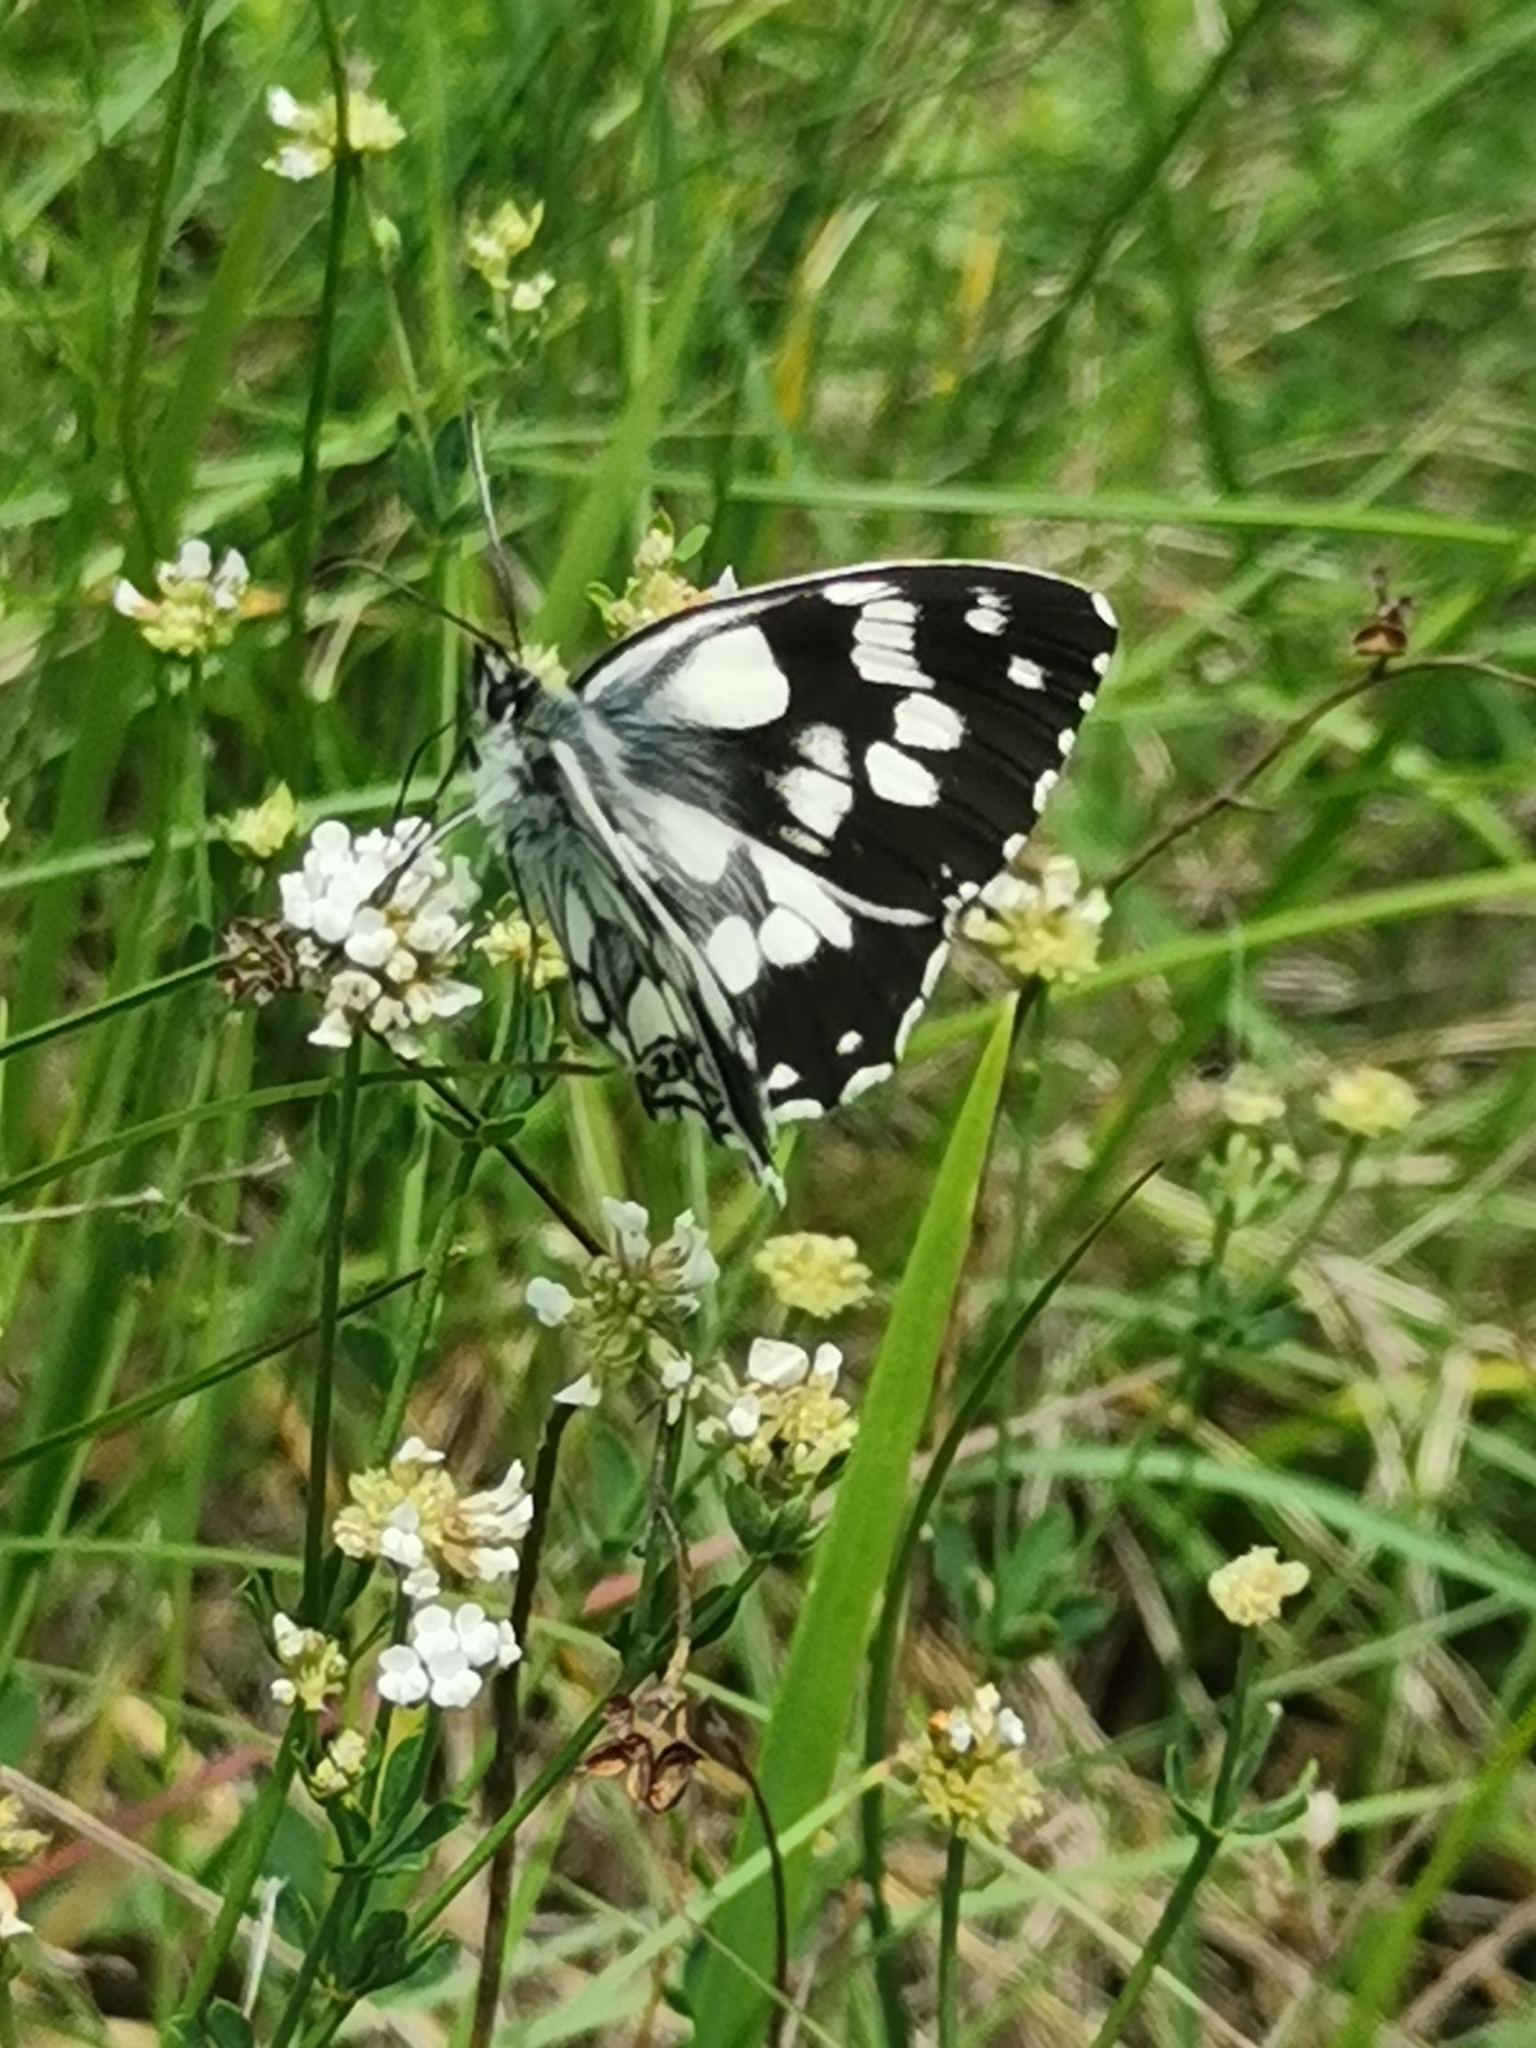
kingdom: Animalia
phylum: Arthropoda
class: Insecta
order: Lepidoptera
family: Nymphalidae
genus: Melanargia
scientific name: Melanargia galathea
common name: Marbled white
